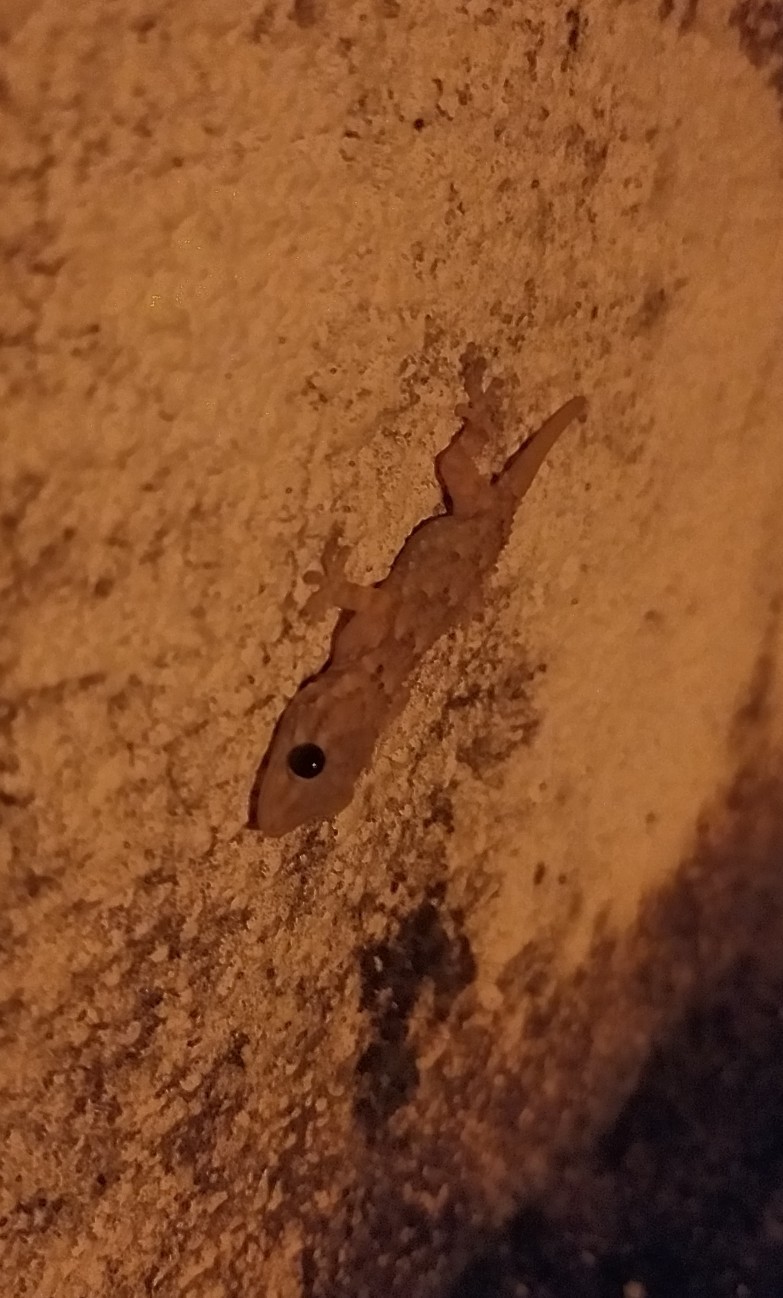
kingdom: Animalia
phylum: Chordata
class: Squamata
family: Phyllodactylidae
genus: Tarentola
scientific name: Tarentola mauritanica
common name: Moorish gecko
